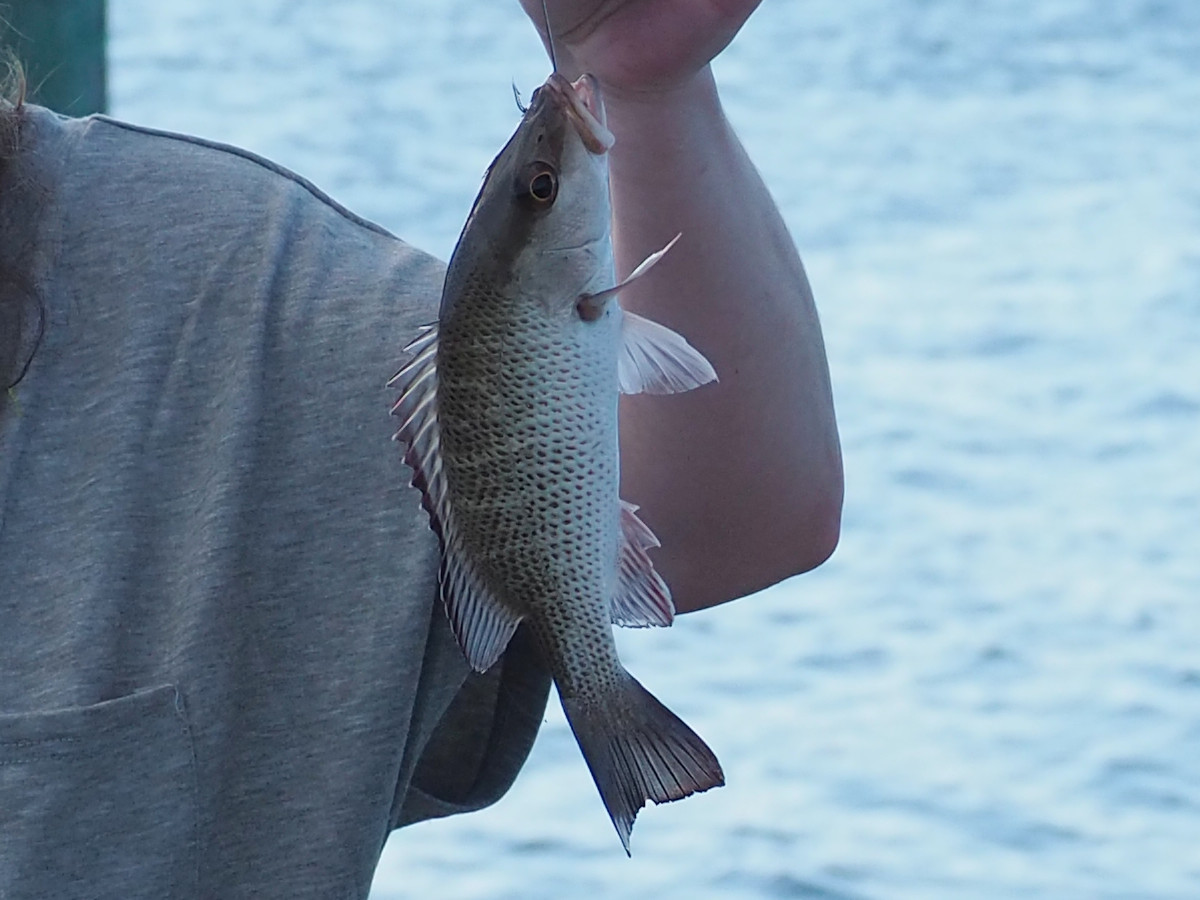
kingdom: Animalia
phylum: Chordata
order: Perciformes
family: Lutjanidae
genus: Lutjanus
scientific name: Lutjanus griseus
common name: Gray snapper
